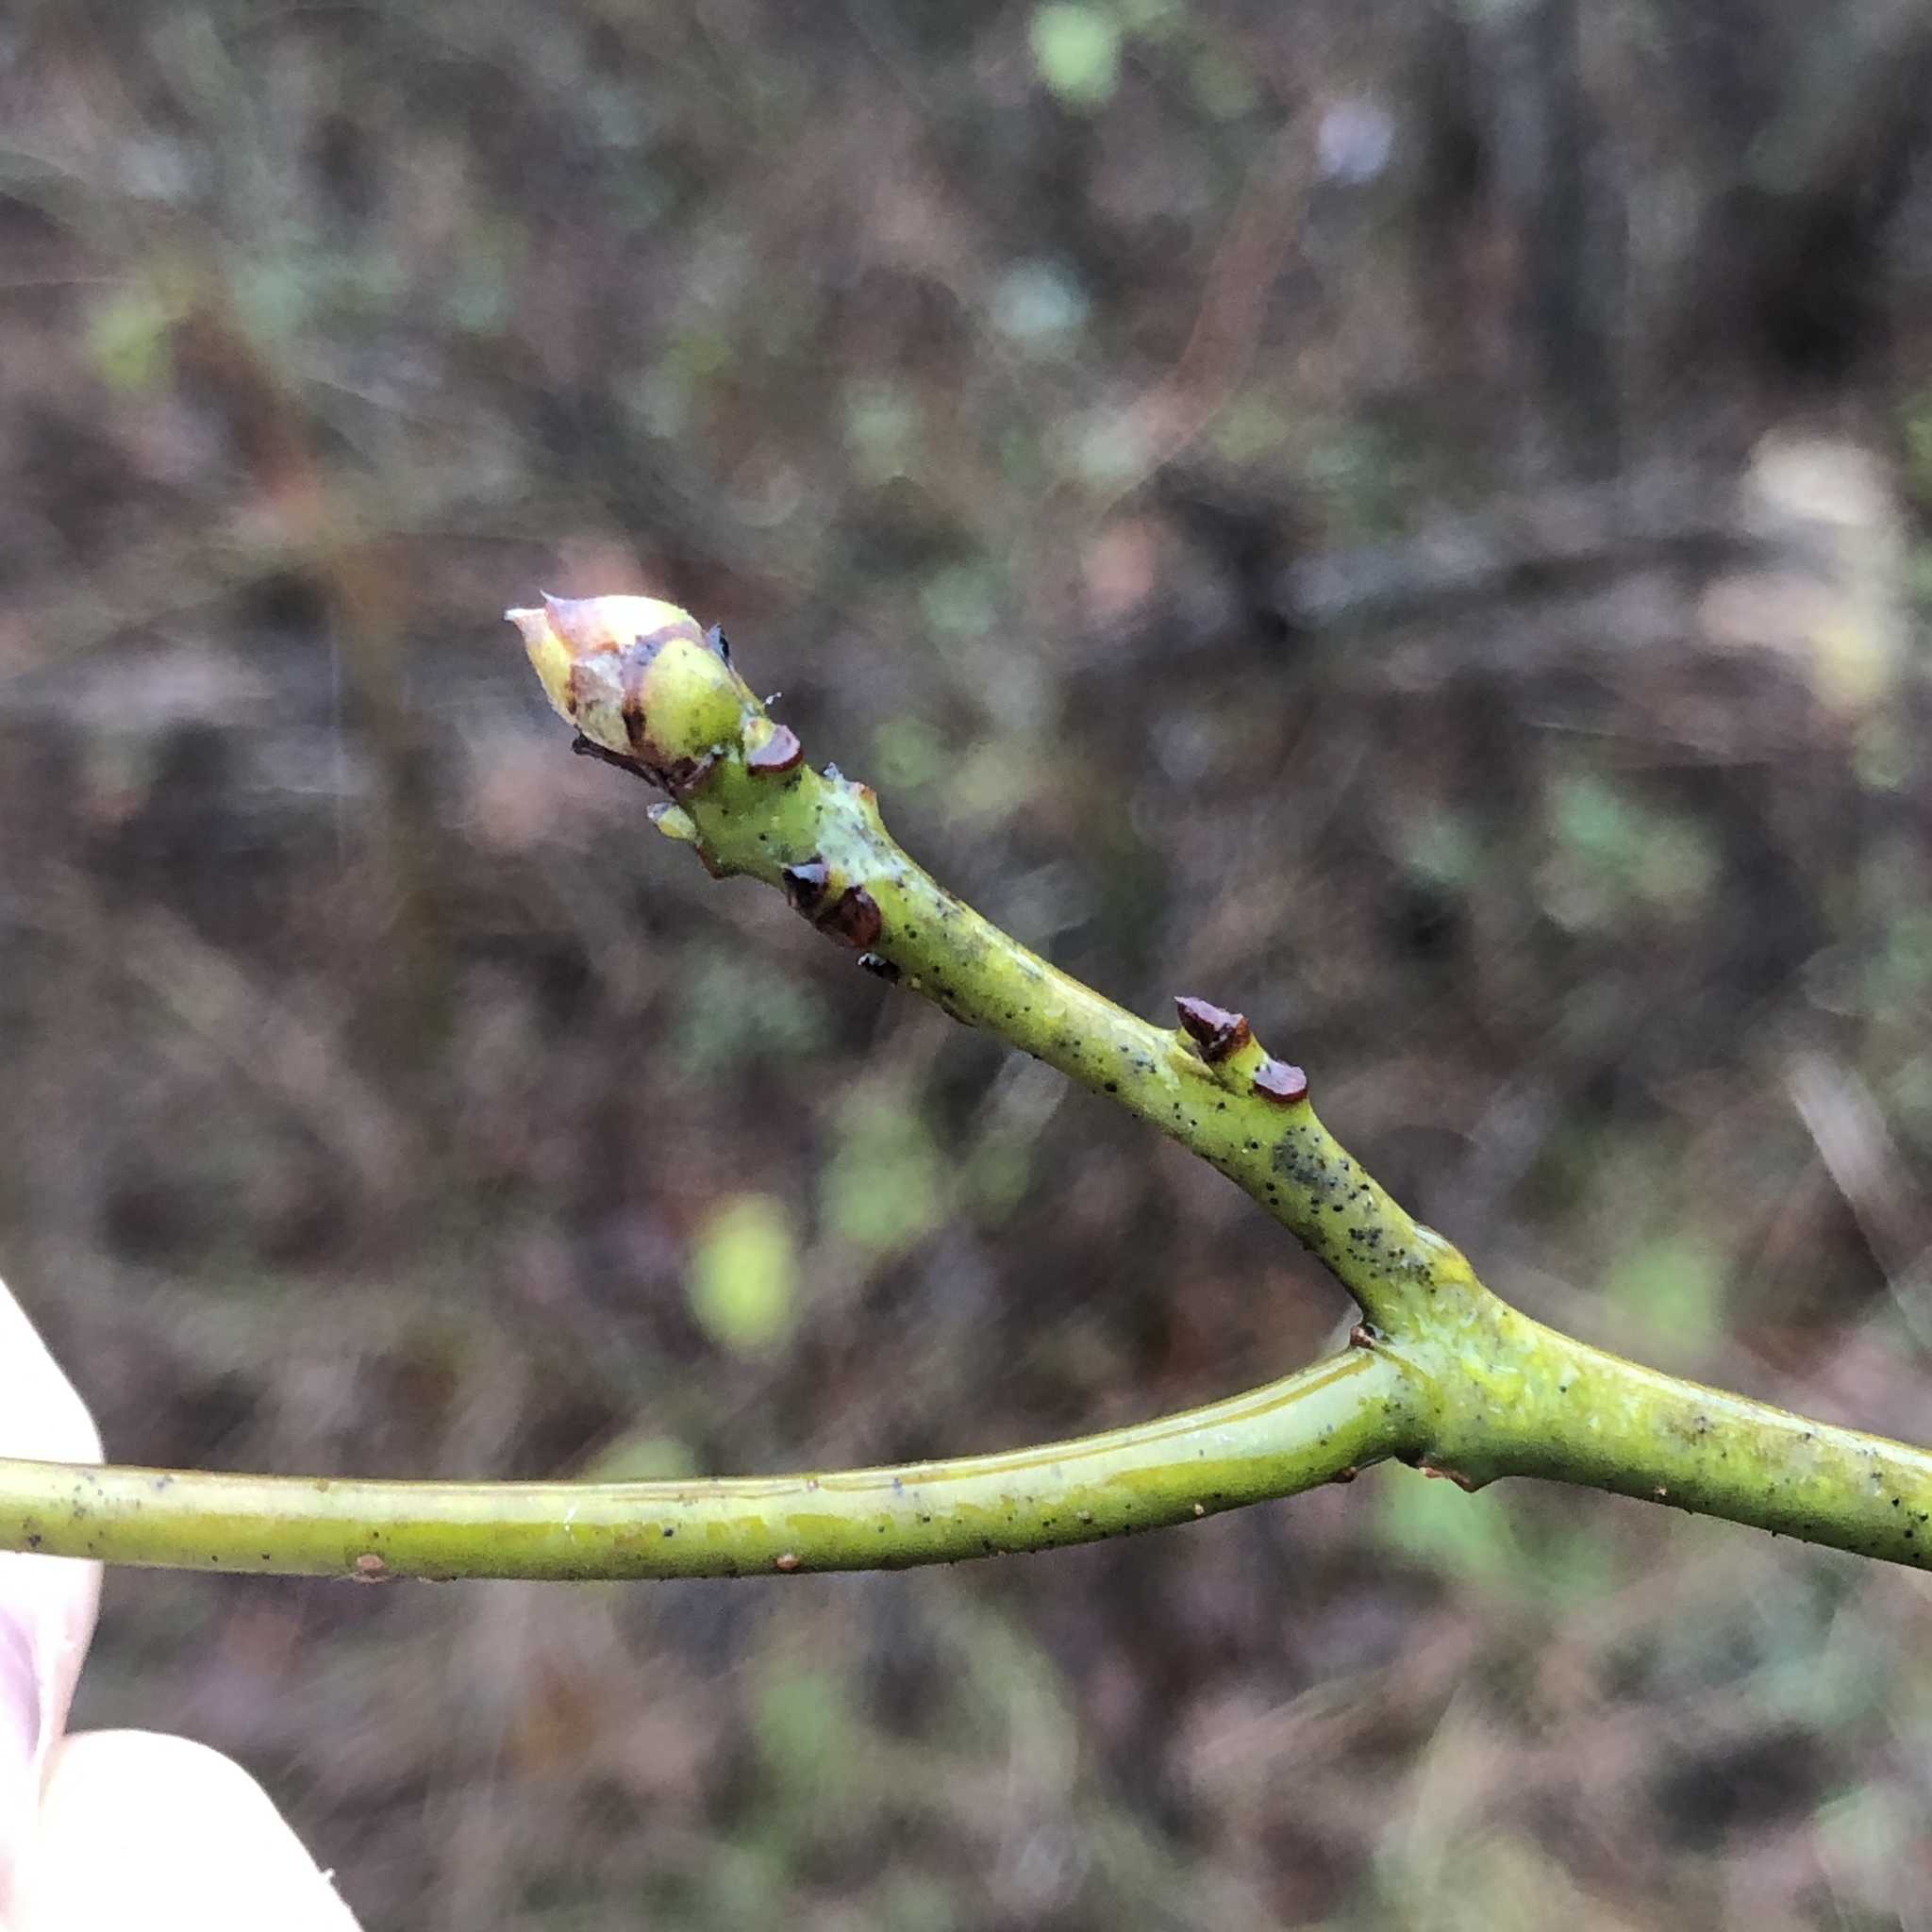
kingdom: Plantae
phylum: Tracheophyta
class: Magnoliopsida
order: Laurales
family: Lauraceae
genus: Sassafras
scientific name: Sassafras albidum
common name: Sassafras
